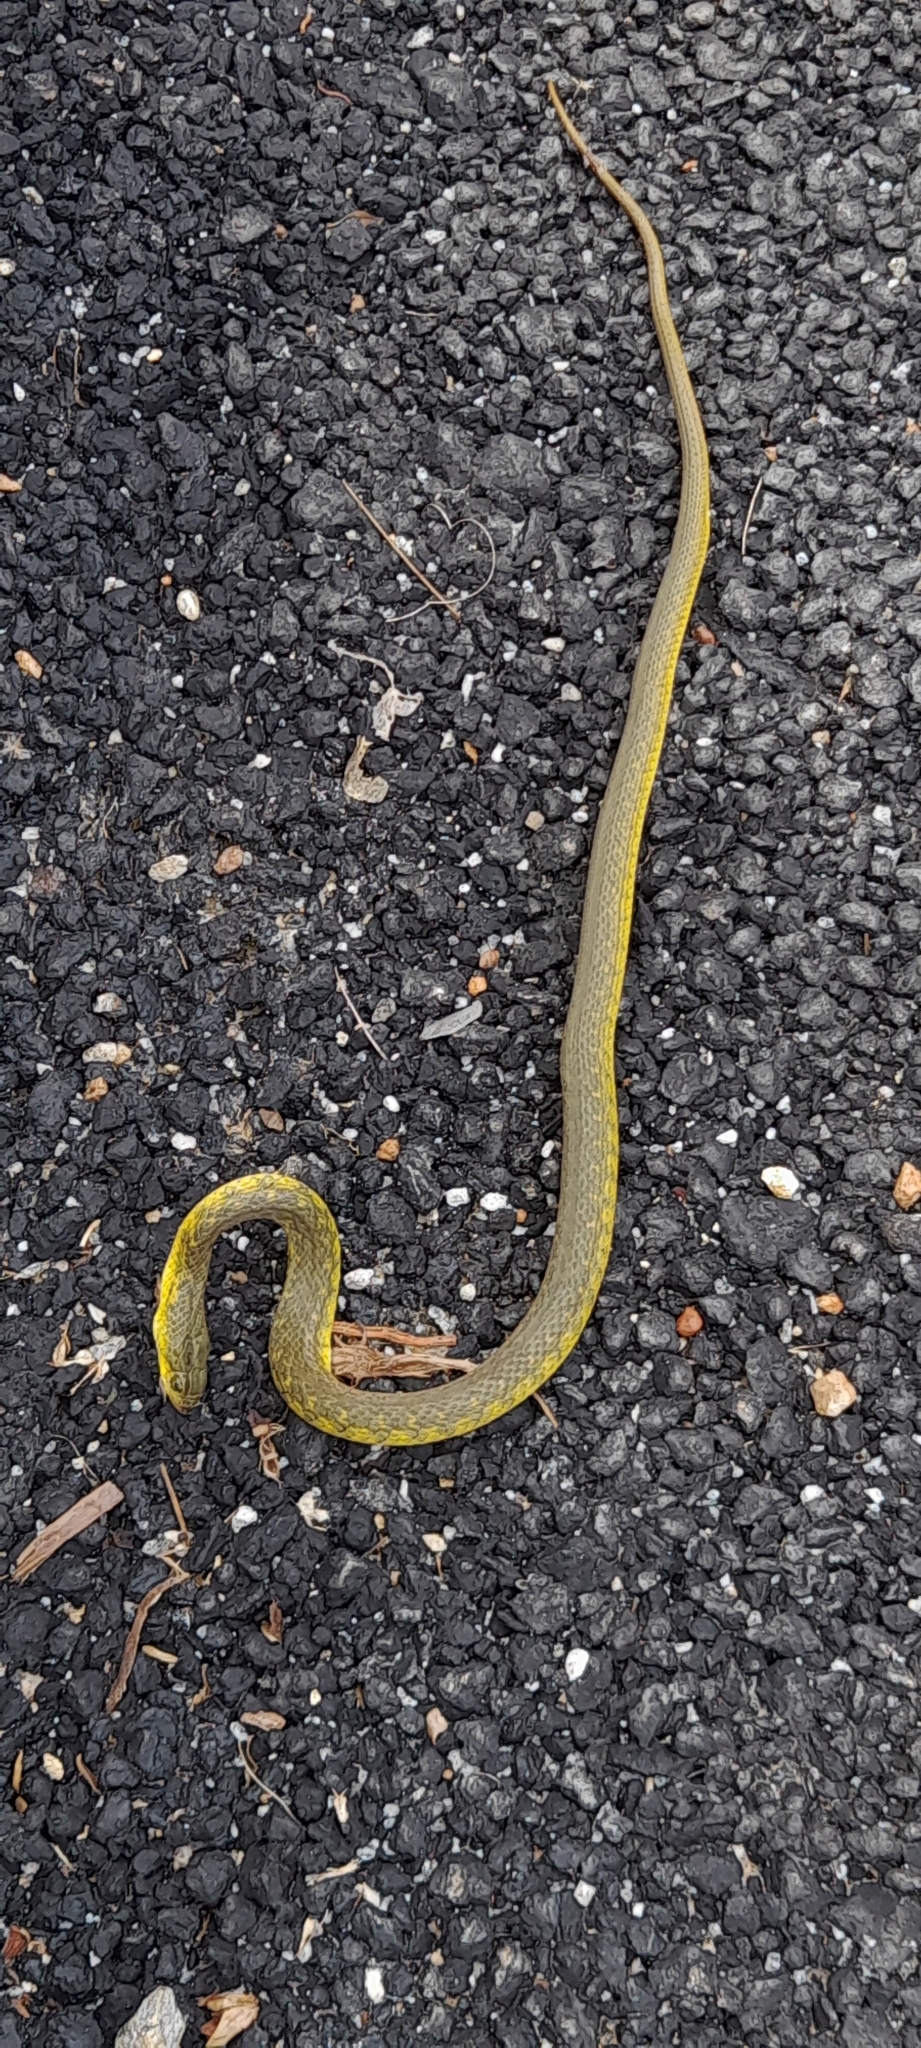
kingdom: Animalia
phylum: Chordata
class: Squamata
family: Colubridae
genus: Fowlea
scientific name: Fowlea piscator
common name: Asiatic water snake
